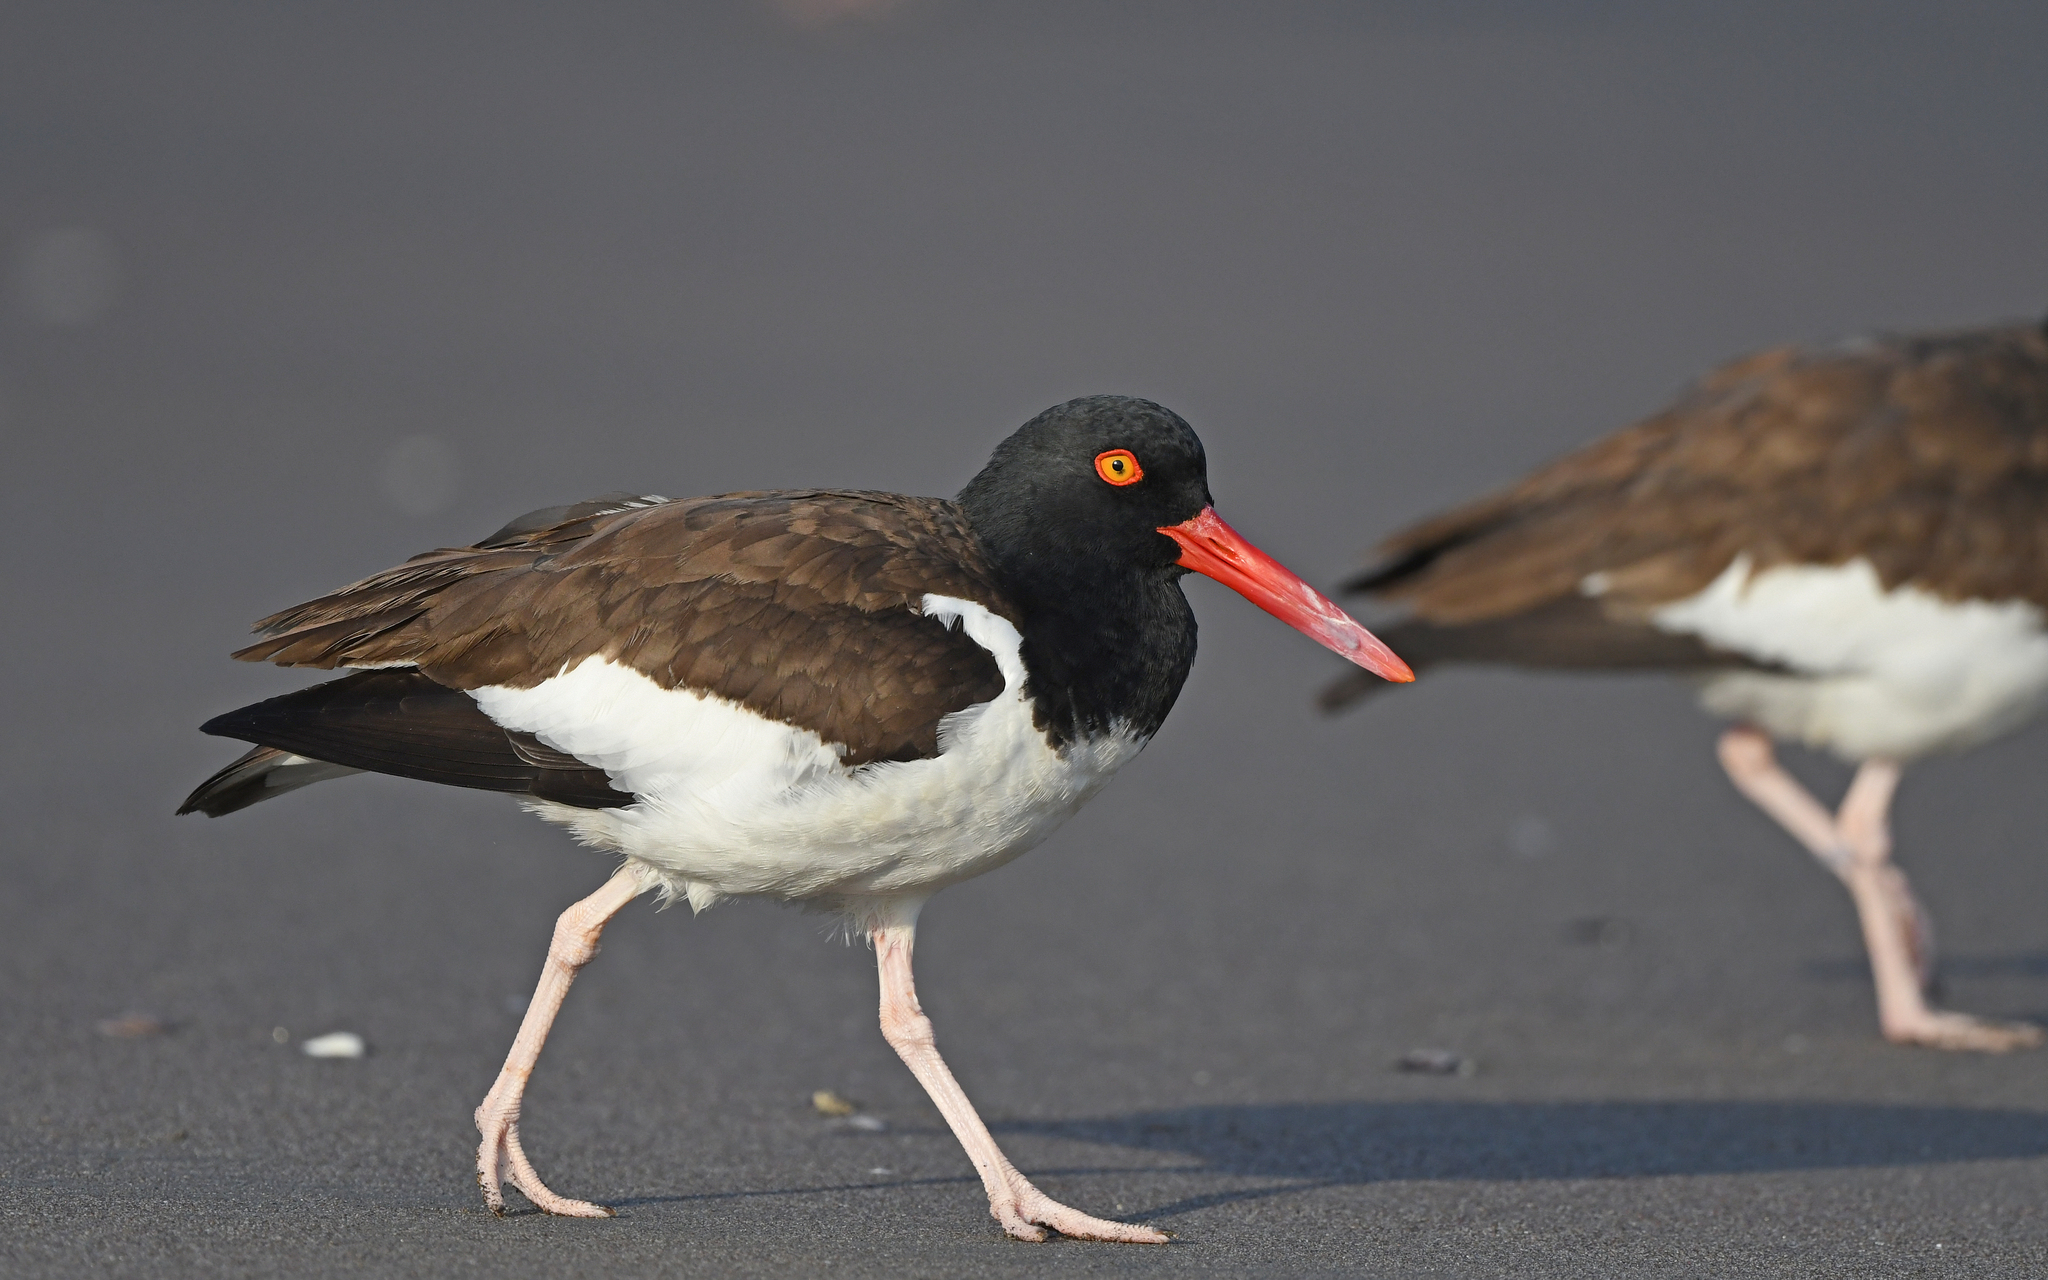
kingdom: Animalia
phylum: Chordata
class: Aves
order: Charadriiformes
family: Haematopodidae
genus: Haematopus
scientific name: Haematopus palliatus
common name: American oystercatcher
